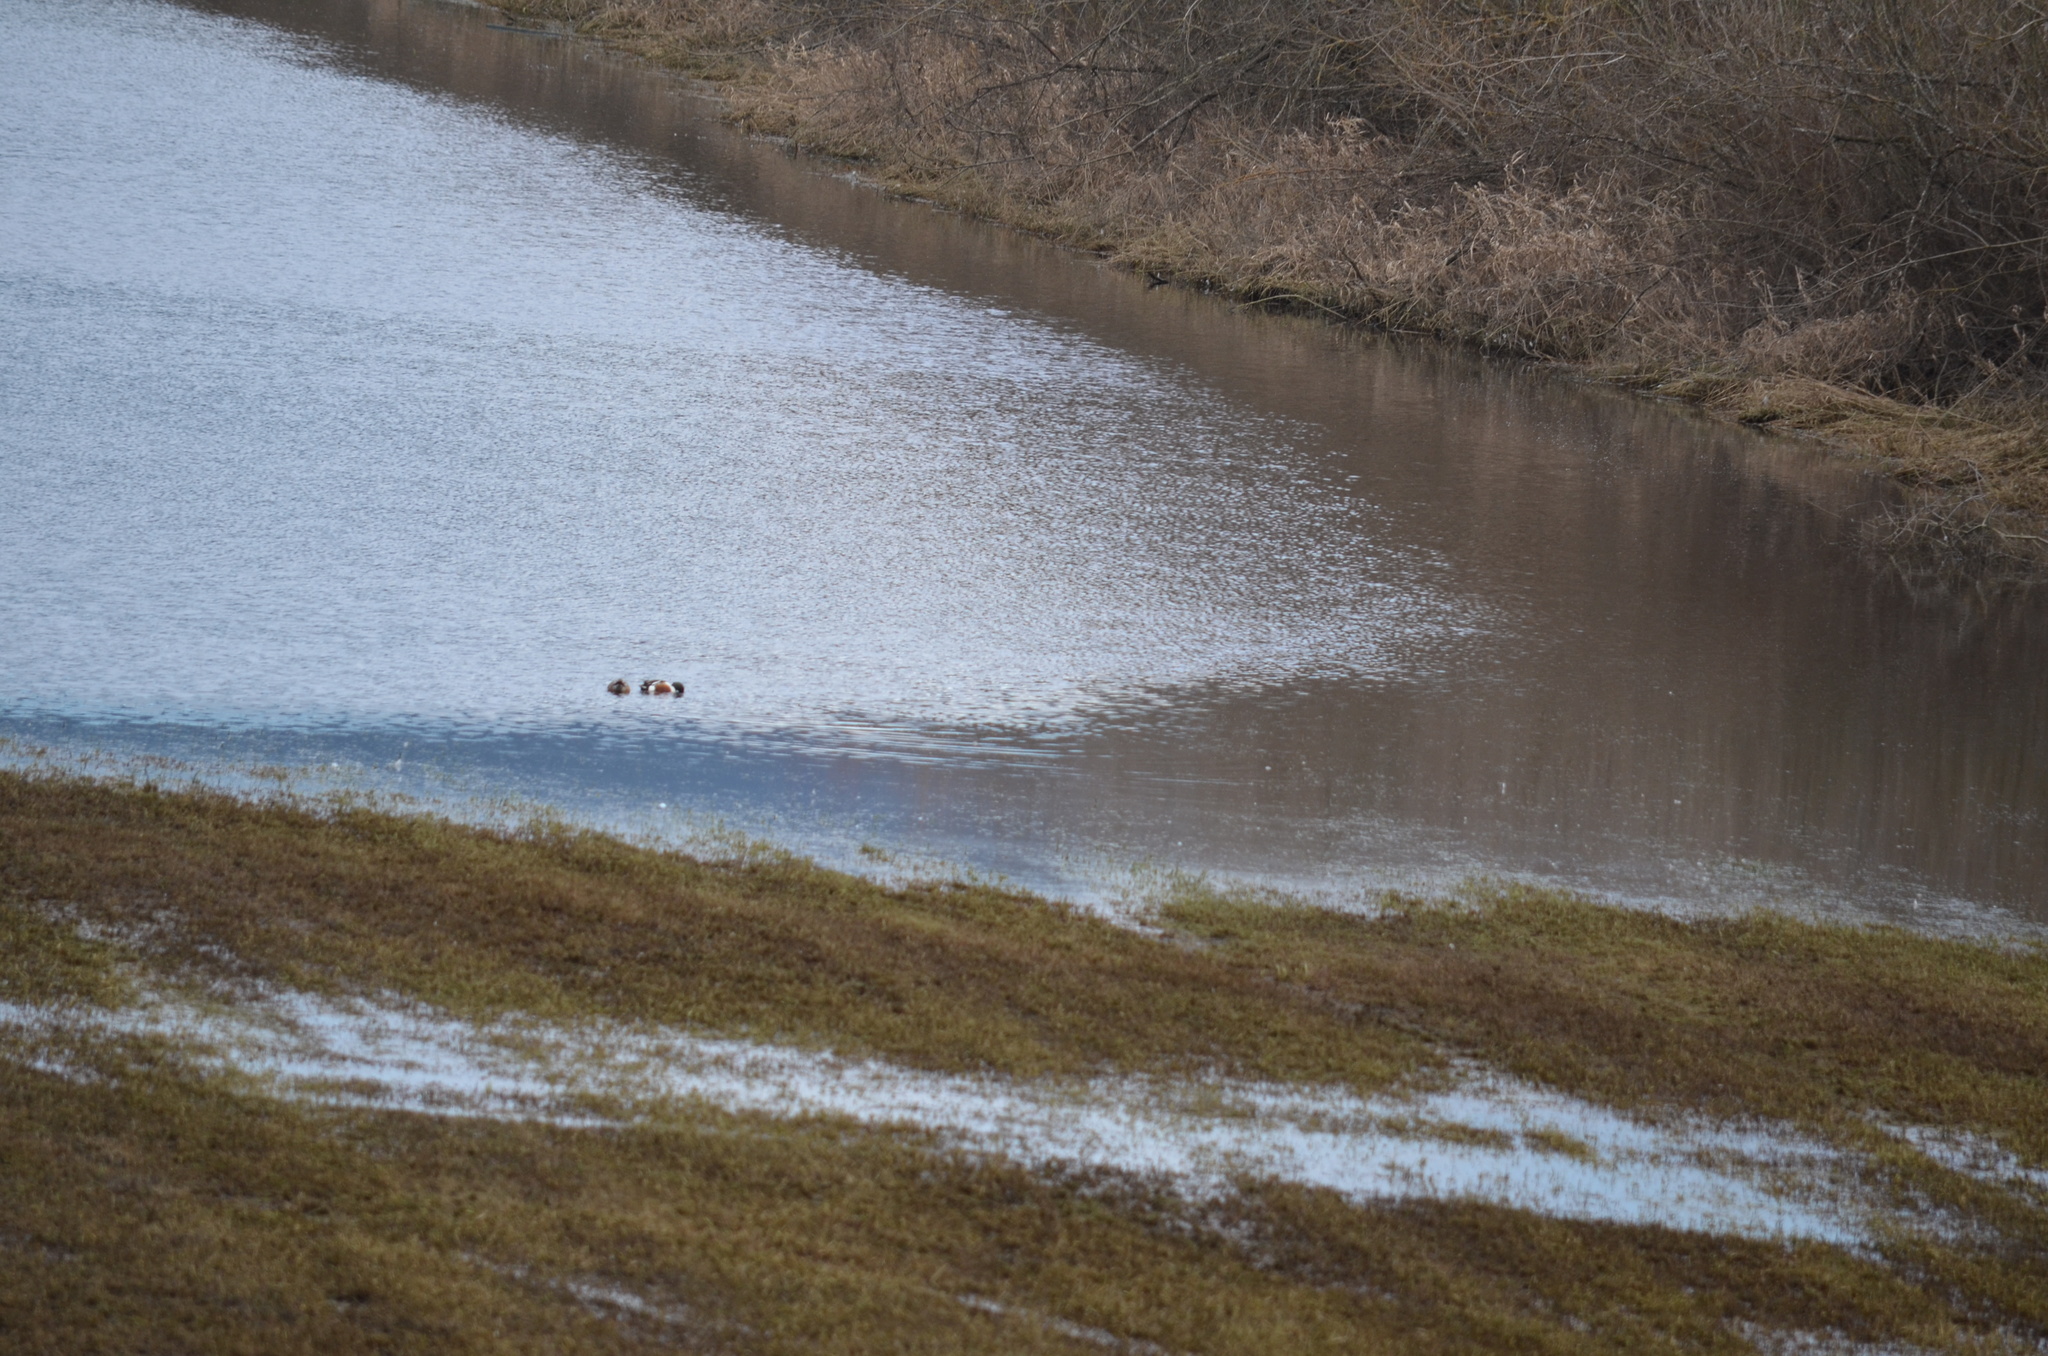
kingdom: Animalia
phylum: Chordata
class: Aves
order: Anseriformes
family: Anatidae
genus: Spatula
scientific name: Spatula clypeata
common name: Northern shoveler
